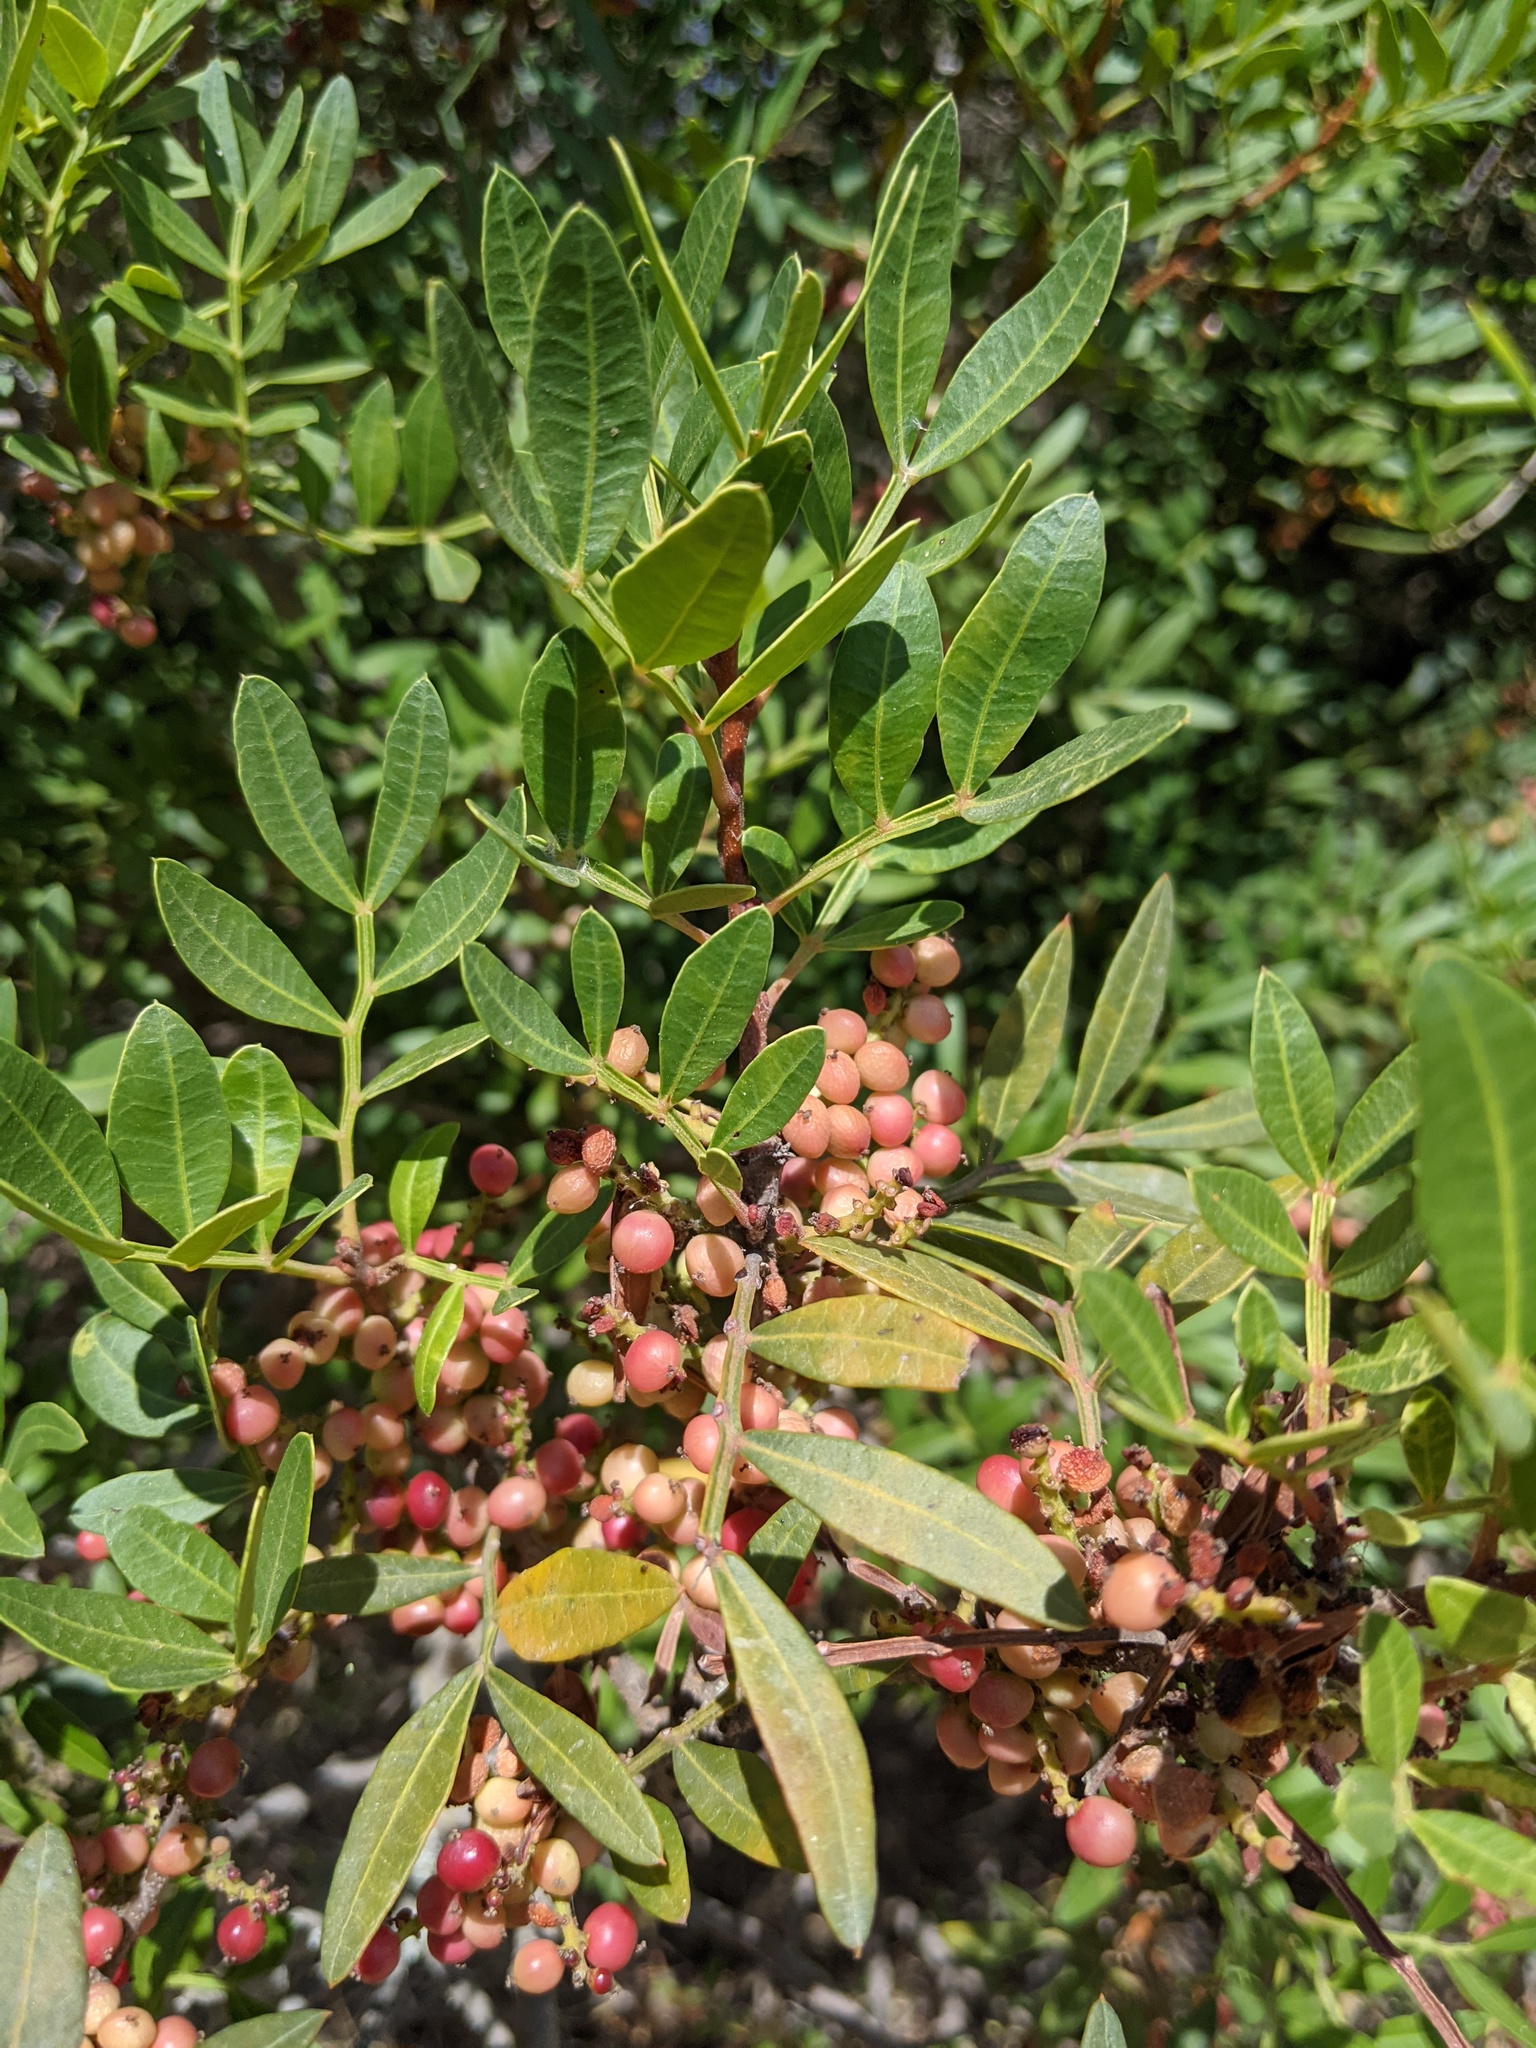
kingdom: Plantae
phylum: Tracheophyta
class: Magnoliopsida
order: Sapindales
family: Anacardiaceae
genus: Pistacia
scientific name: Pistacia lentiscus
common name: Lentisk
